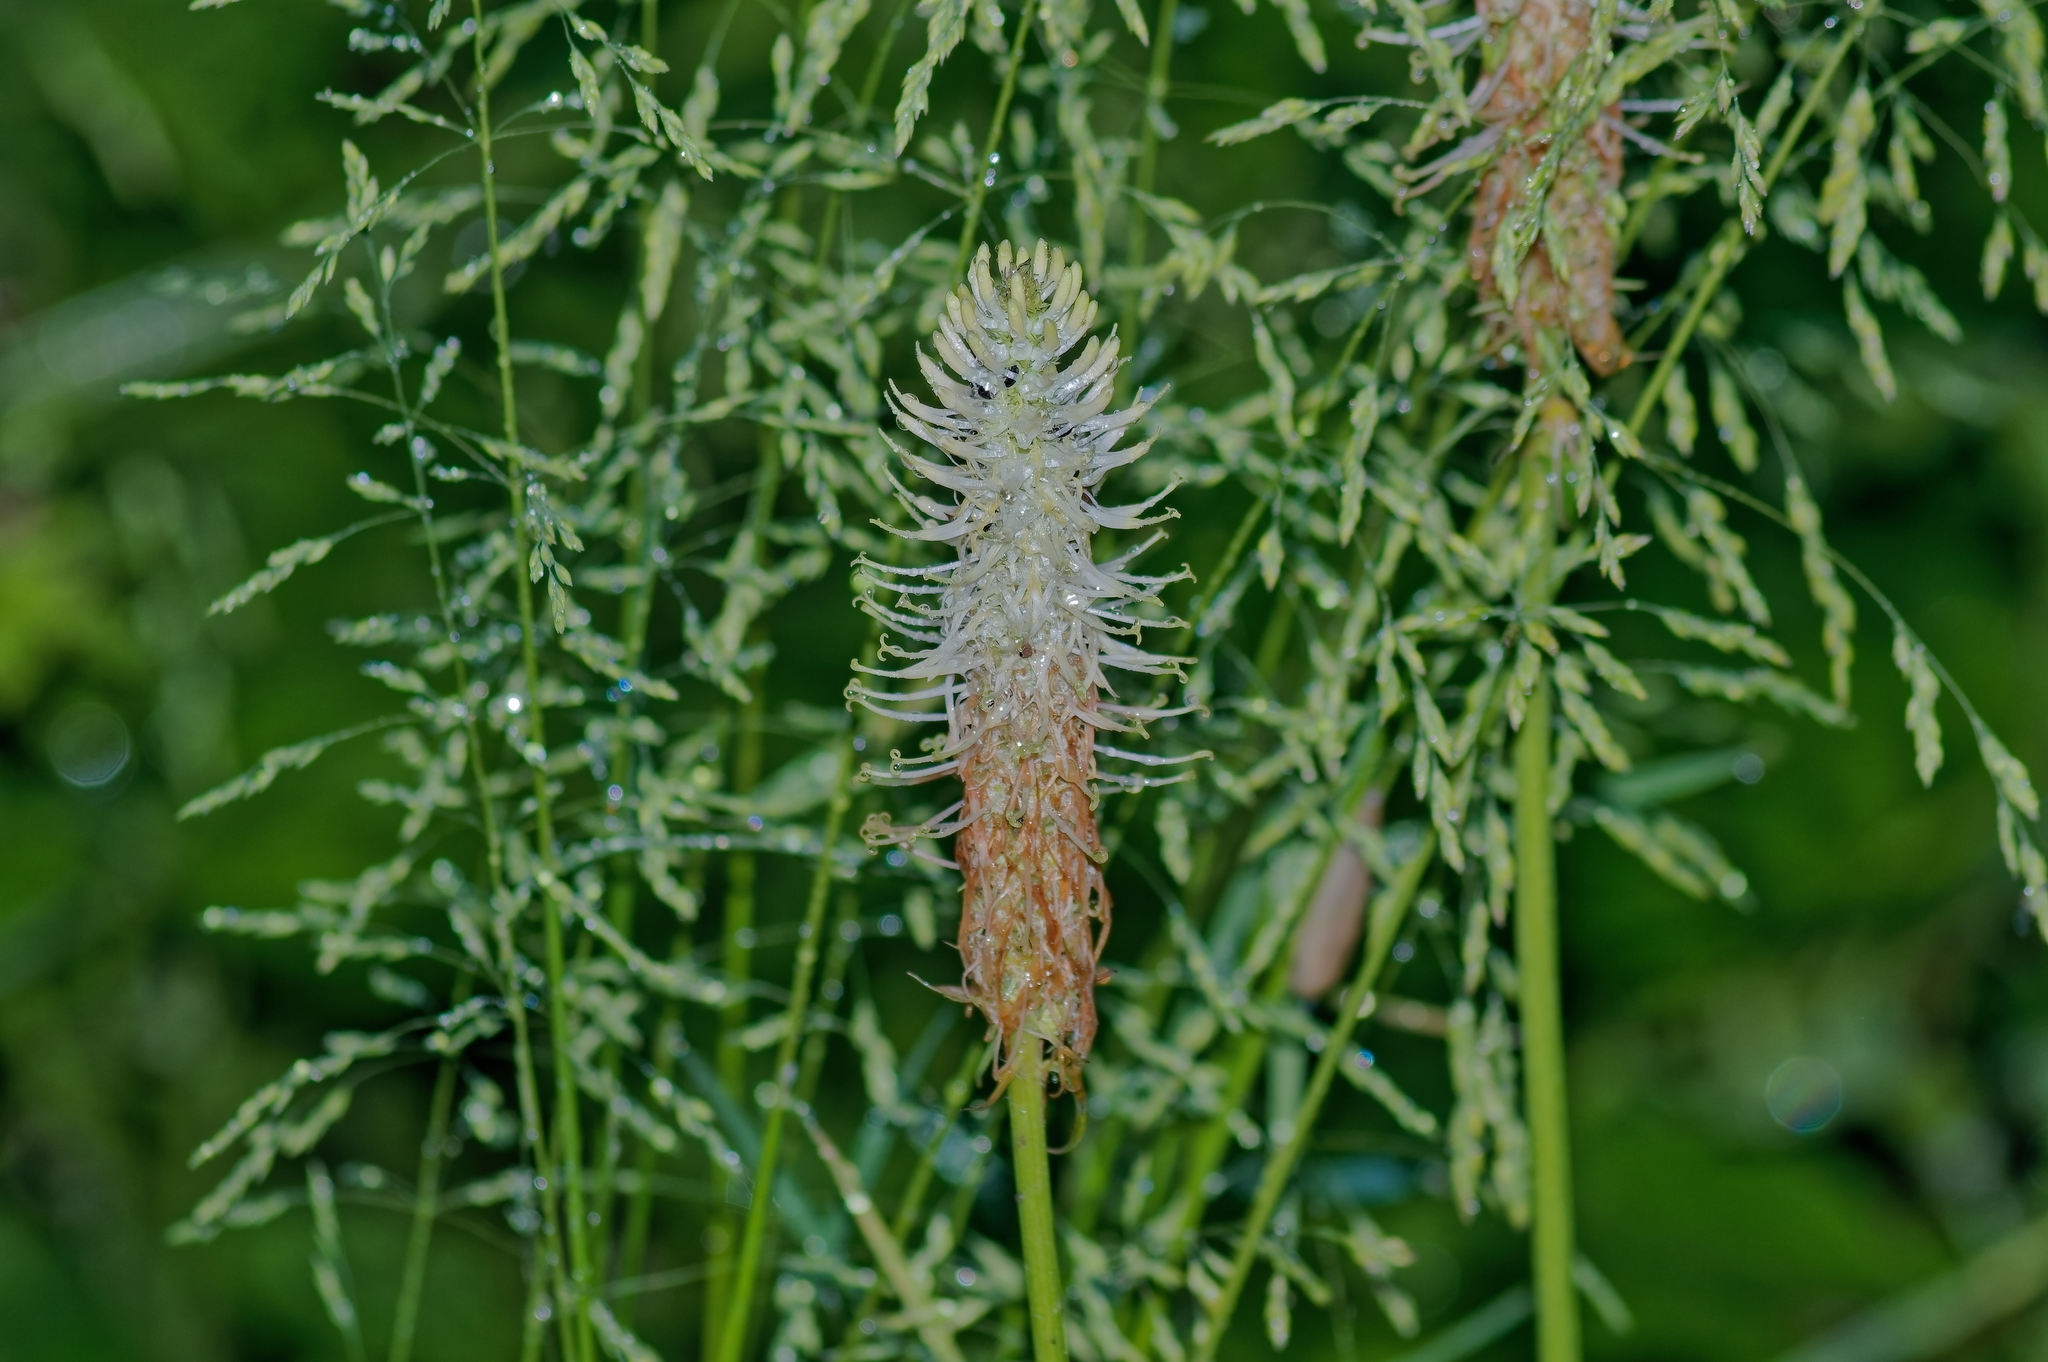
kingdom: Plantae
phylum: Tracheophyta
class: Magnoliopsida
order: Asterales
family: Campanulaceae
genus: Phyteuma
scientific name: Phyteuma spicatum
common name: Spiked rampion
